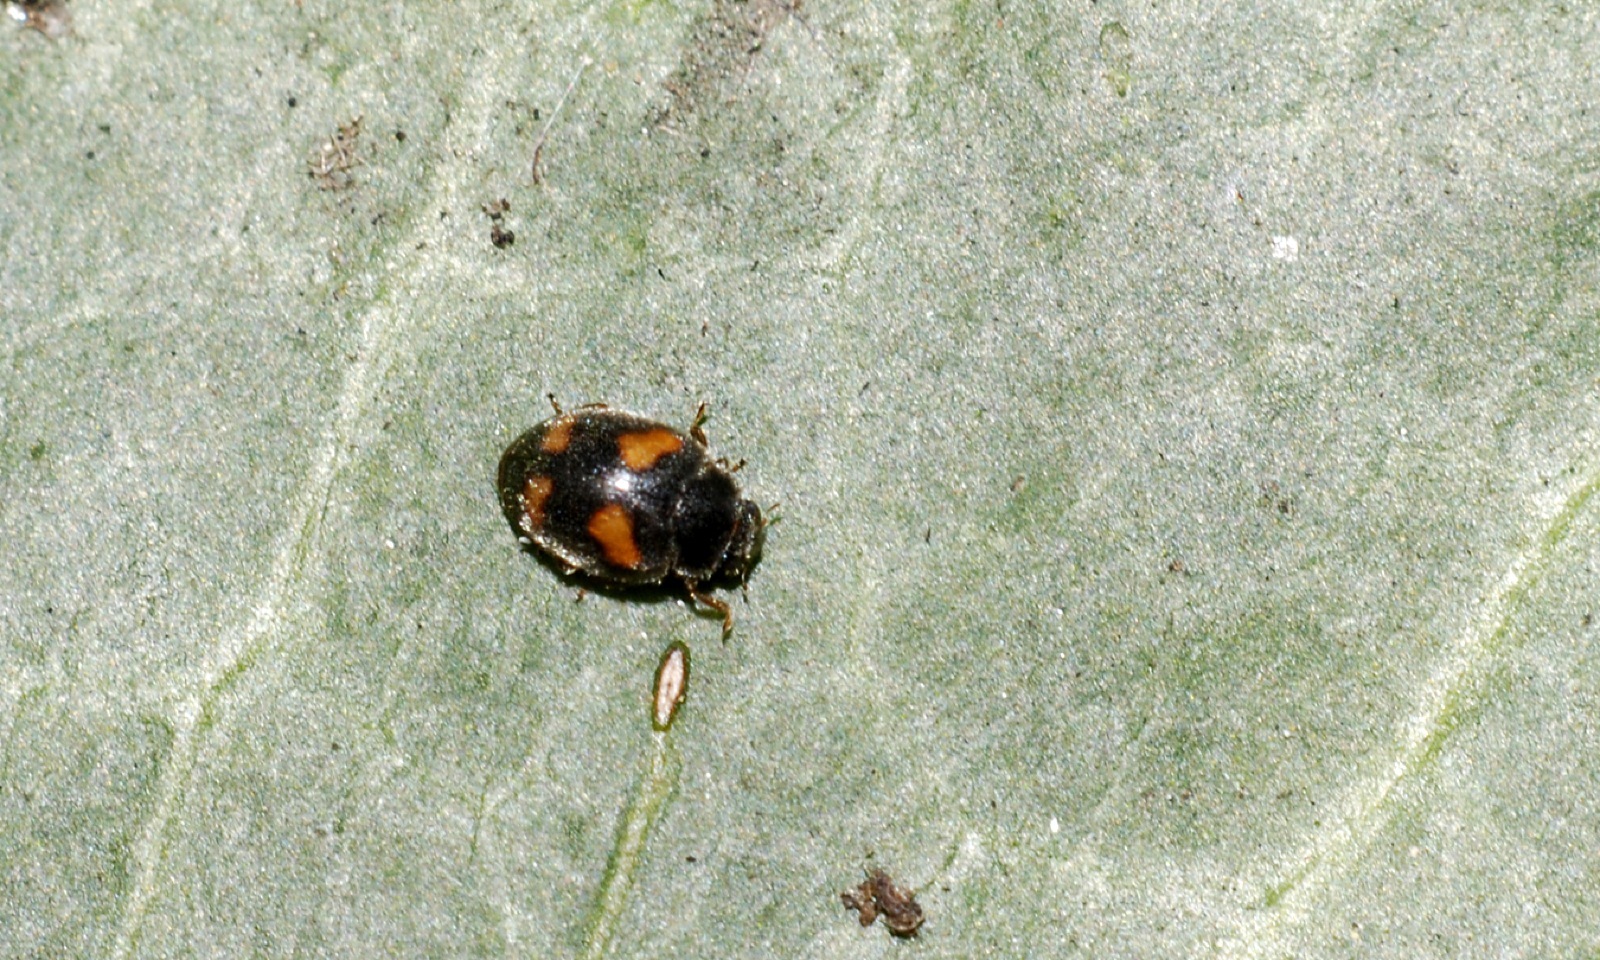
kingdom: Animalia
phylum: Arthropoda
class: Insecta
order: Coleoptera
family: Coccinellidae
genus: Nephus
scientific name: Nephus quadrimaculatus
